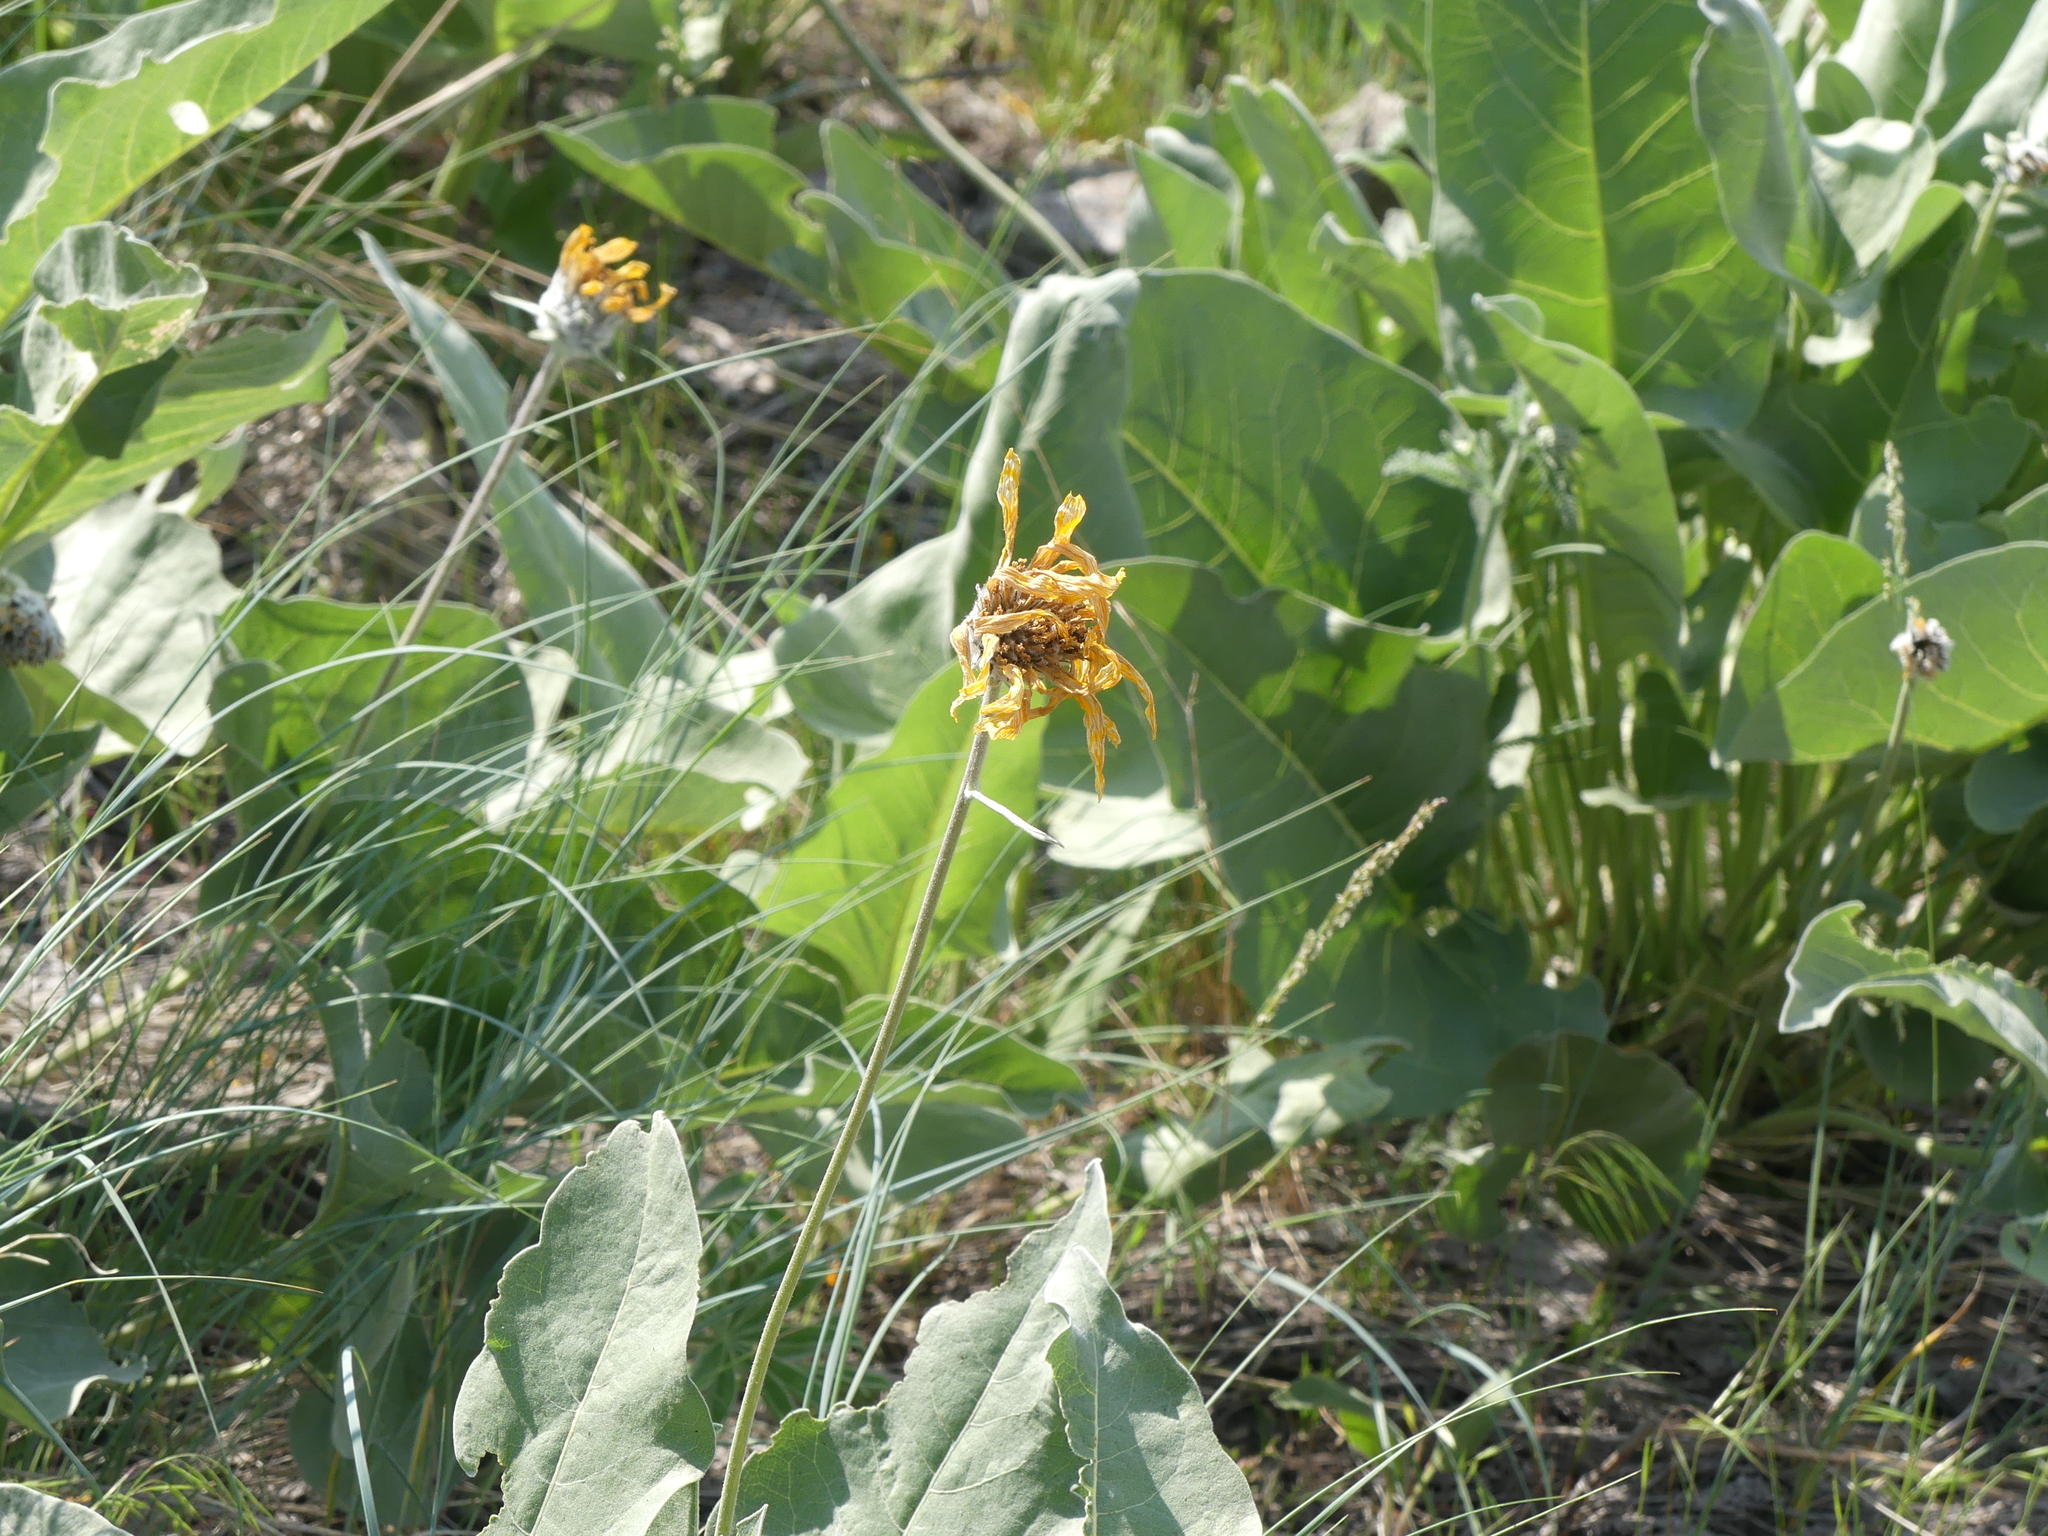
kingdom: Plantae
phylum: Tracheophyta
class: Magnoliopsida
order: Asterales
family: Asteraceae
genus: Wyethia
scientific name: Wyethia sagittata
